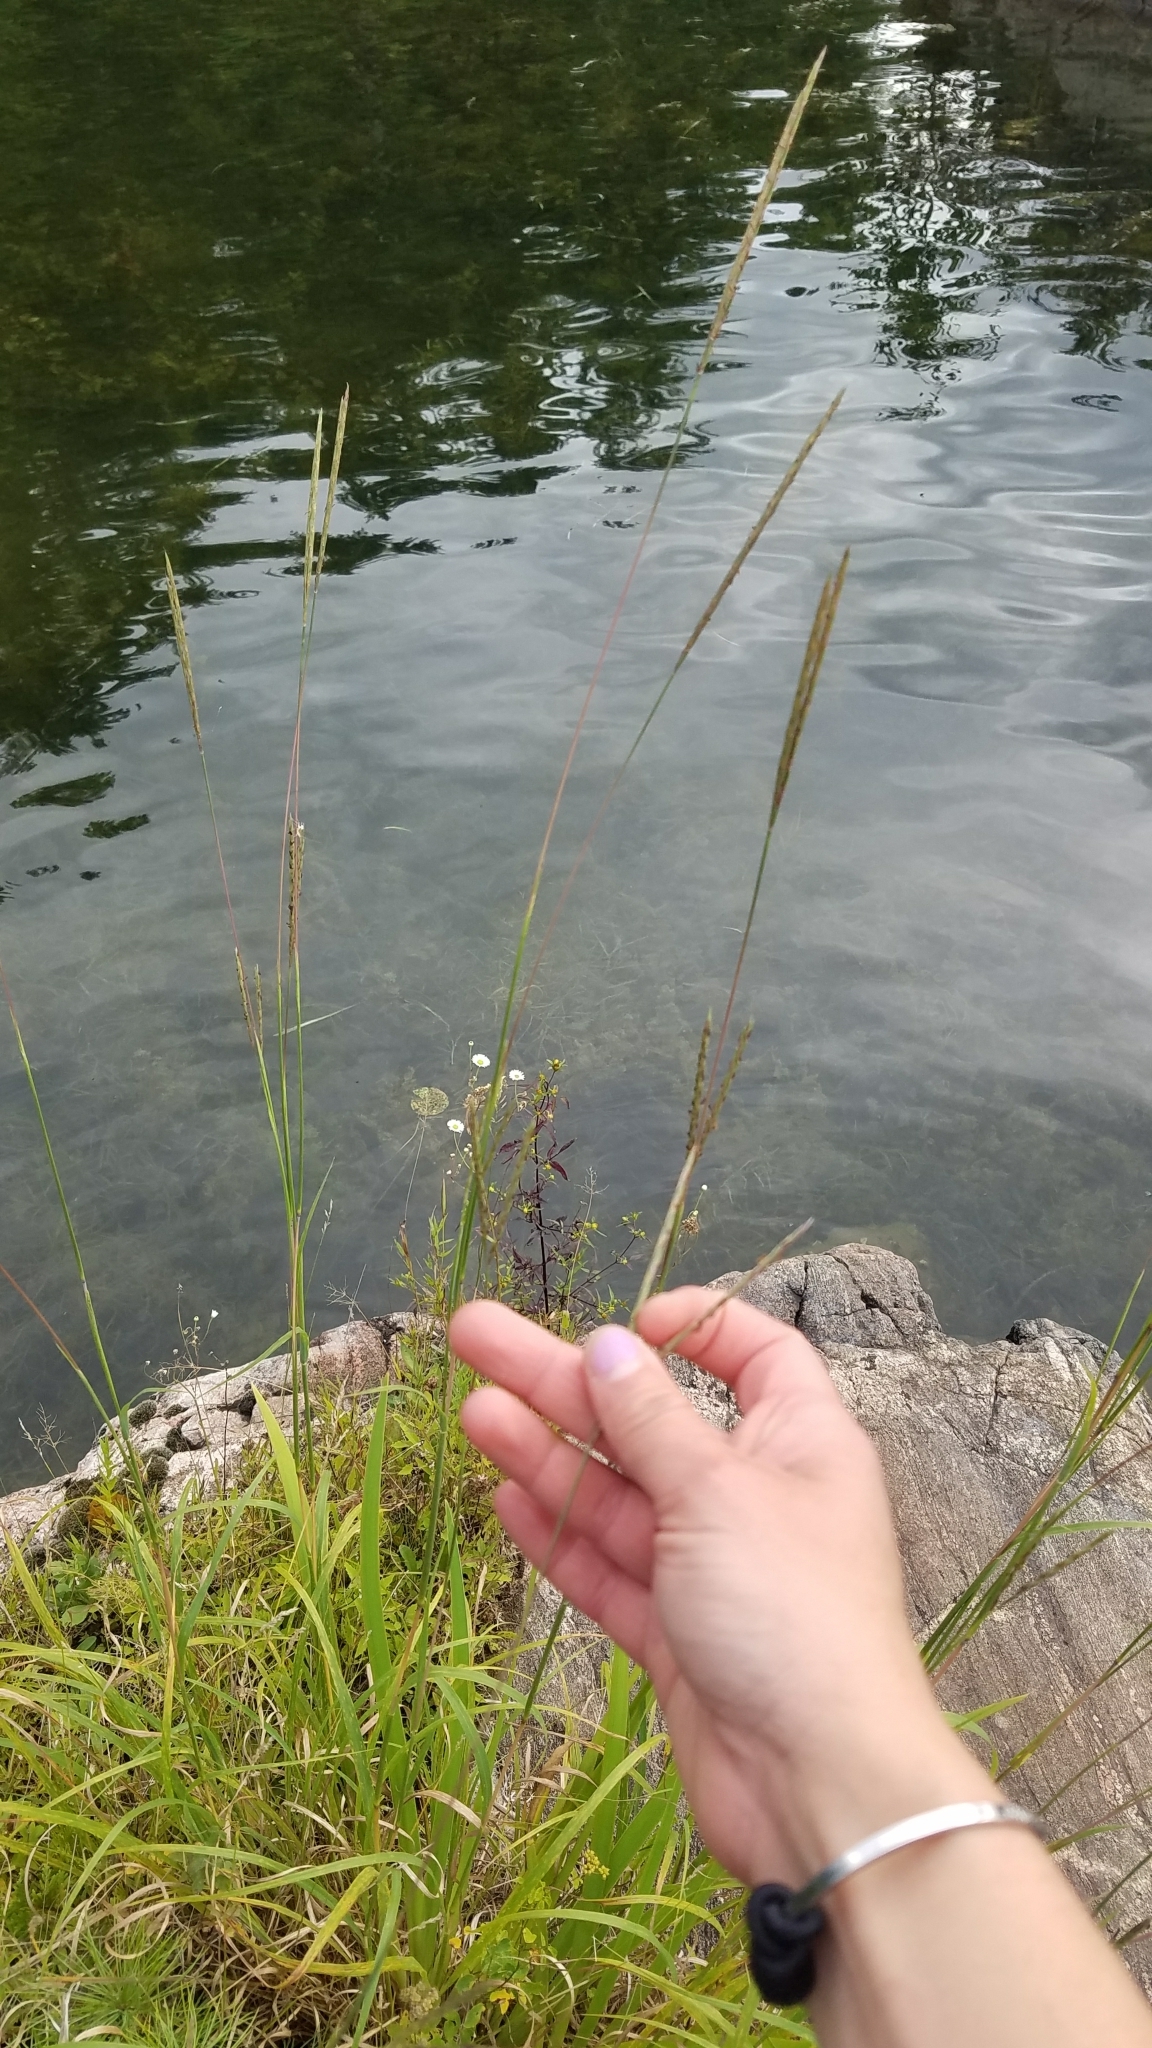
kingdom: Plantae
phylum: Tracheophyta
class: Liliopsida
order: Poales
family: Poaceae
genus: Andropogon
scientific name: Andropogon gerardi
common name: Big bluestem
